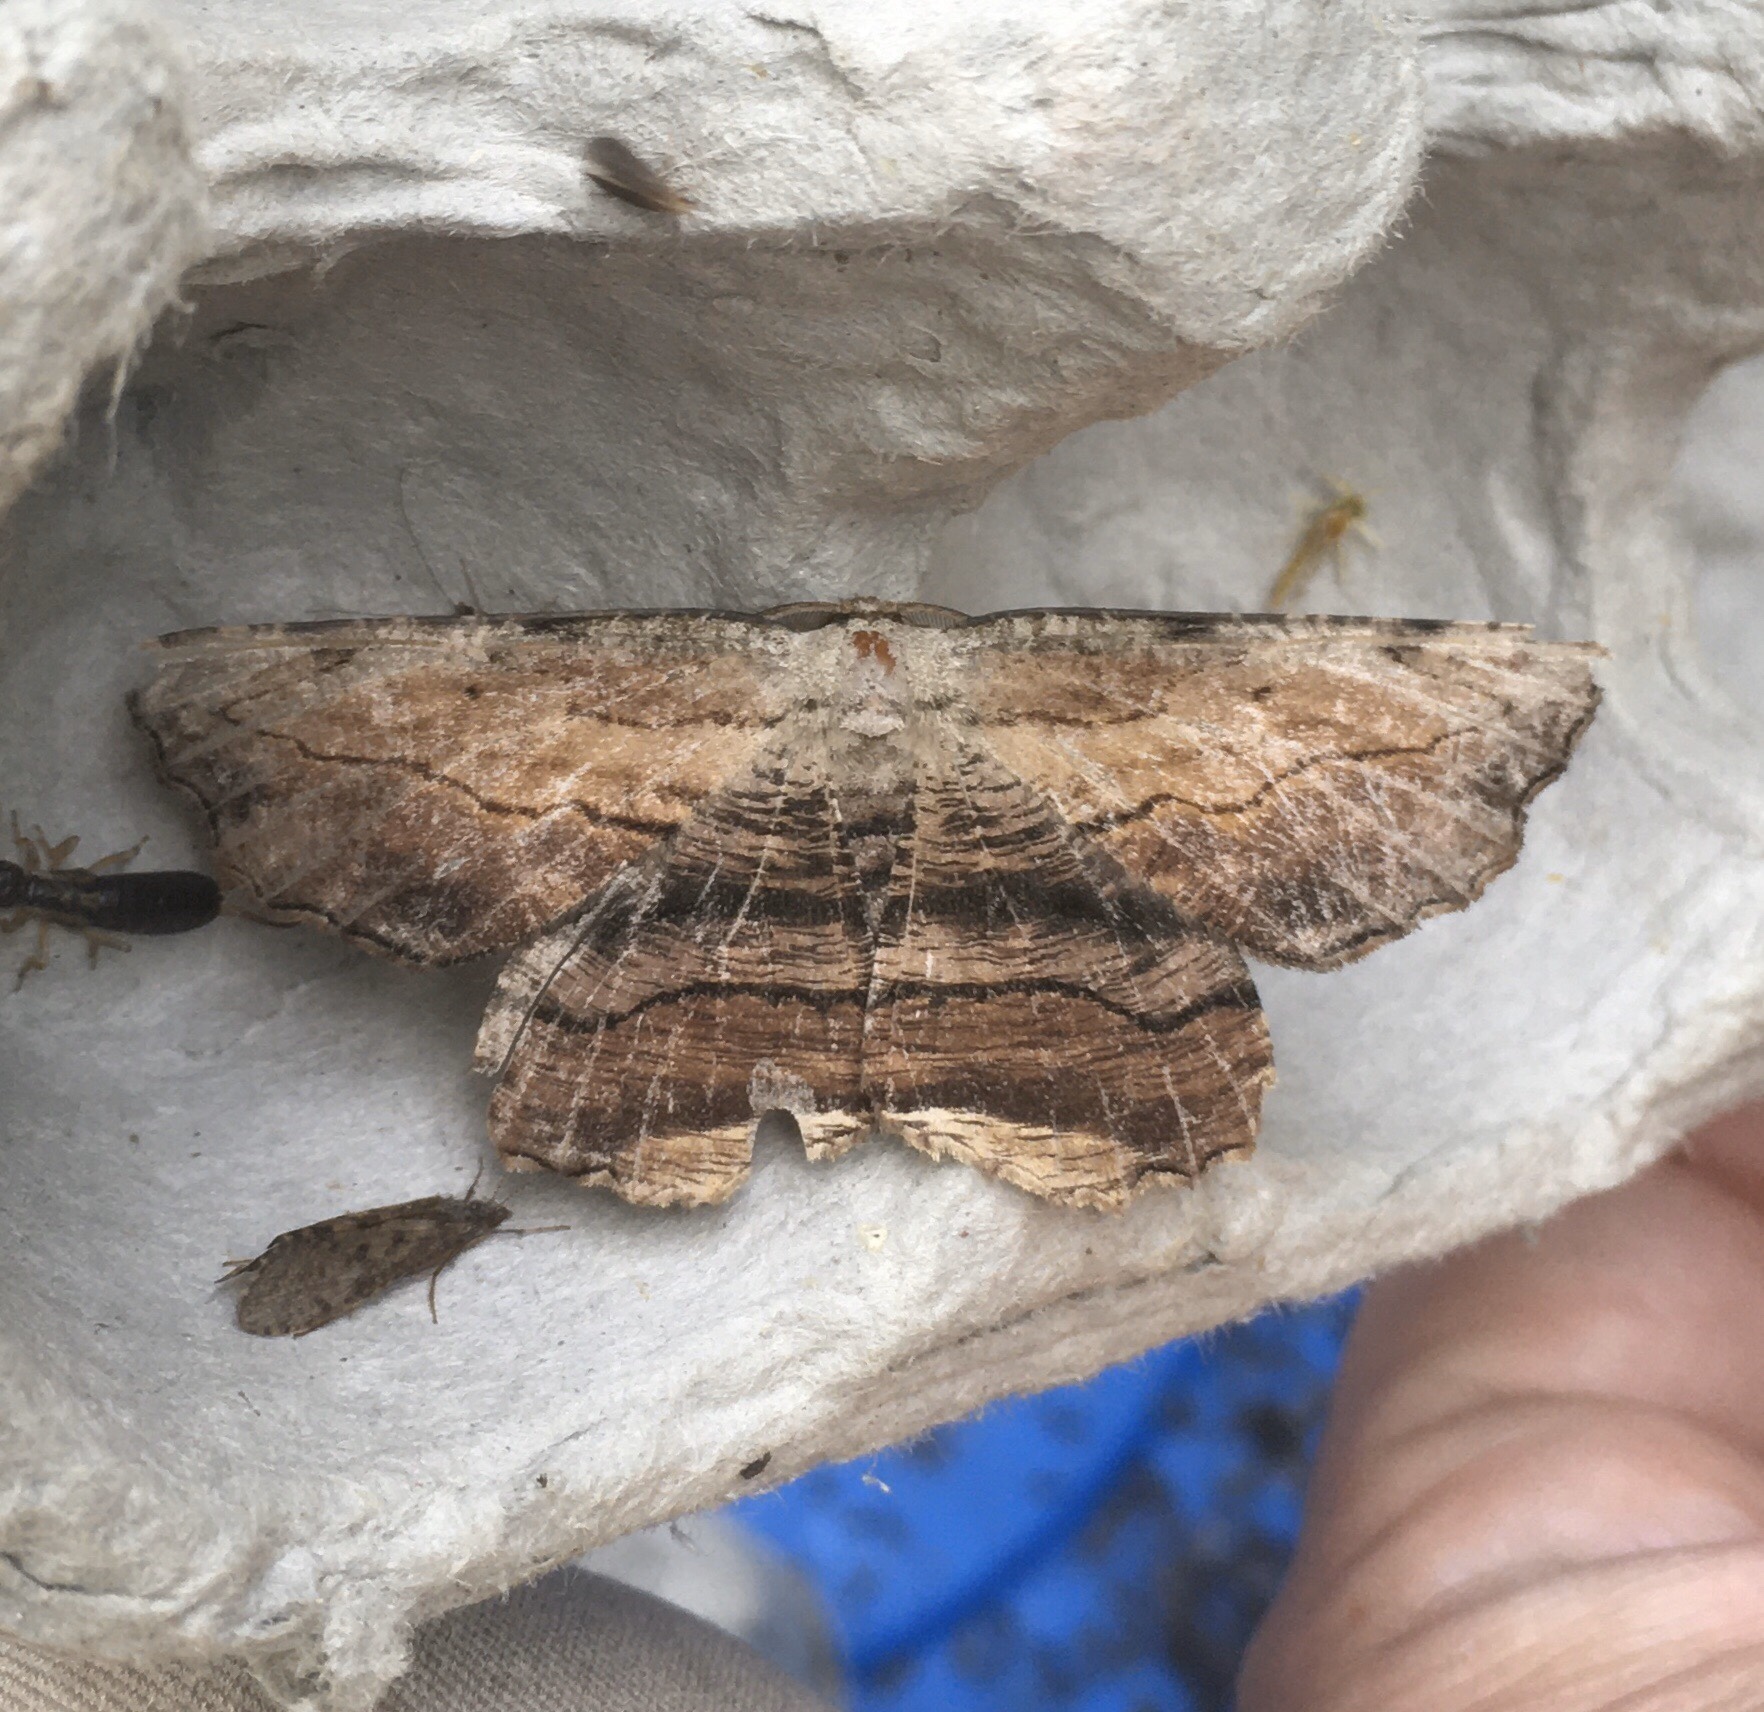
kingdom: Animalia
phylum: Arthropoda
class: Insecta
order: Lepidoptera
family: Geometridae
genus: Lytrosis
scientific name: Lytrosis unitaria
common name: Common lytrosis
